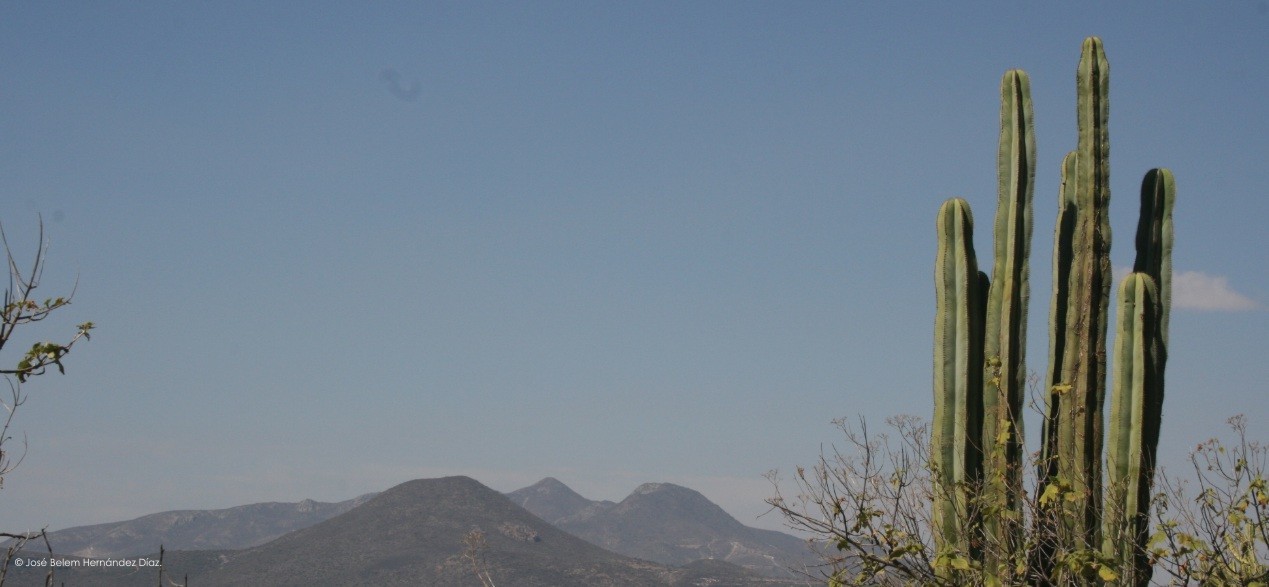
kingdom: Plantae
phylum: Tracheophyta
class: Magnoliopsida
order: Caryophyllales
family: Cactaceae
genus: Marginatocereus
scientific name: Marginatocereus marginatus
